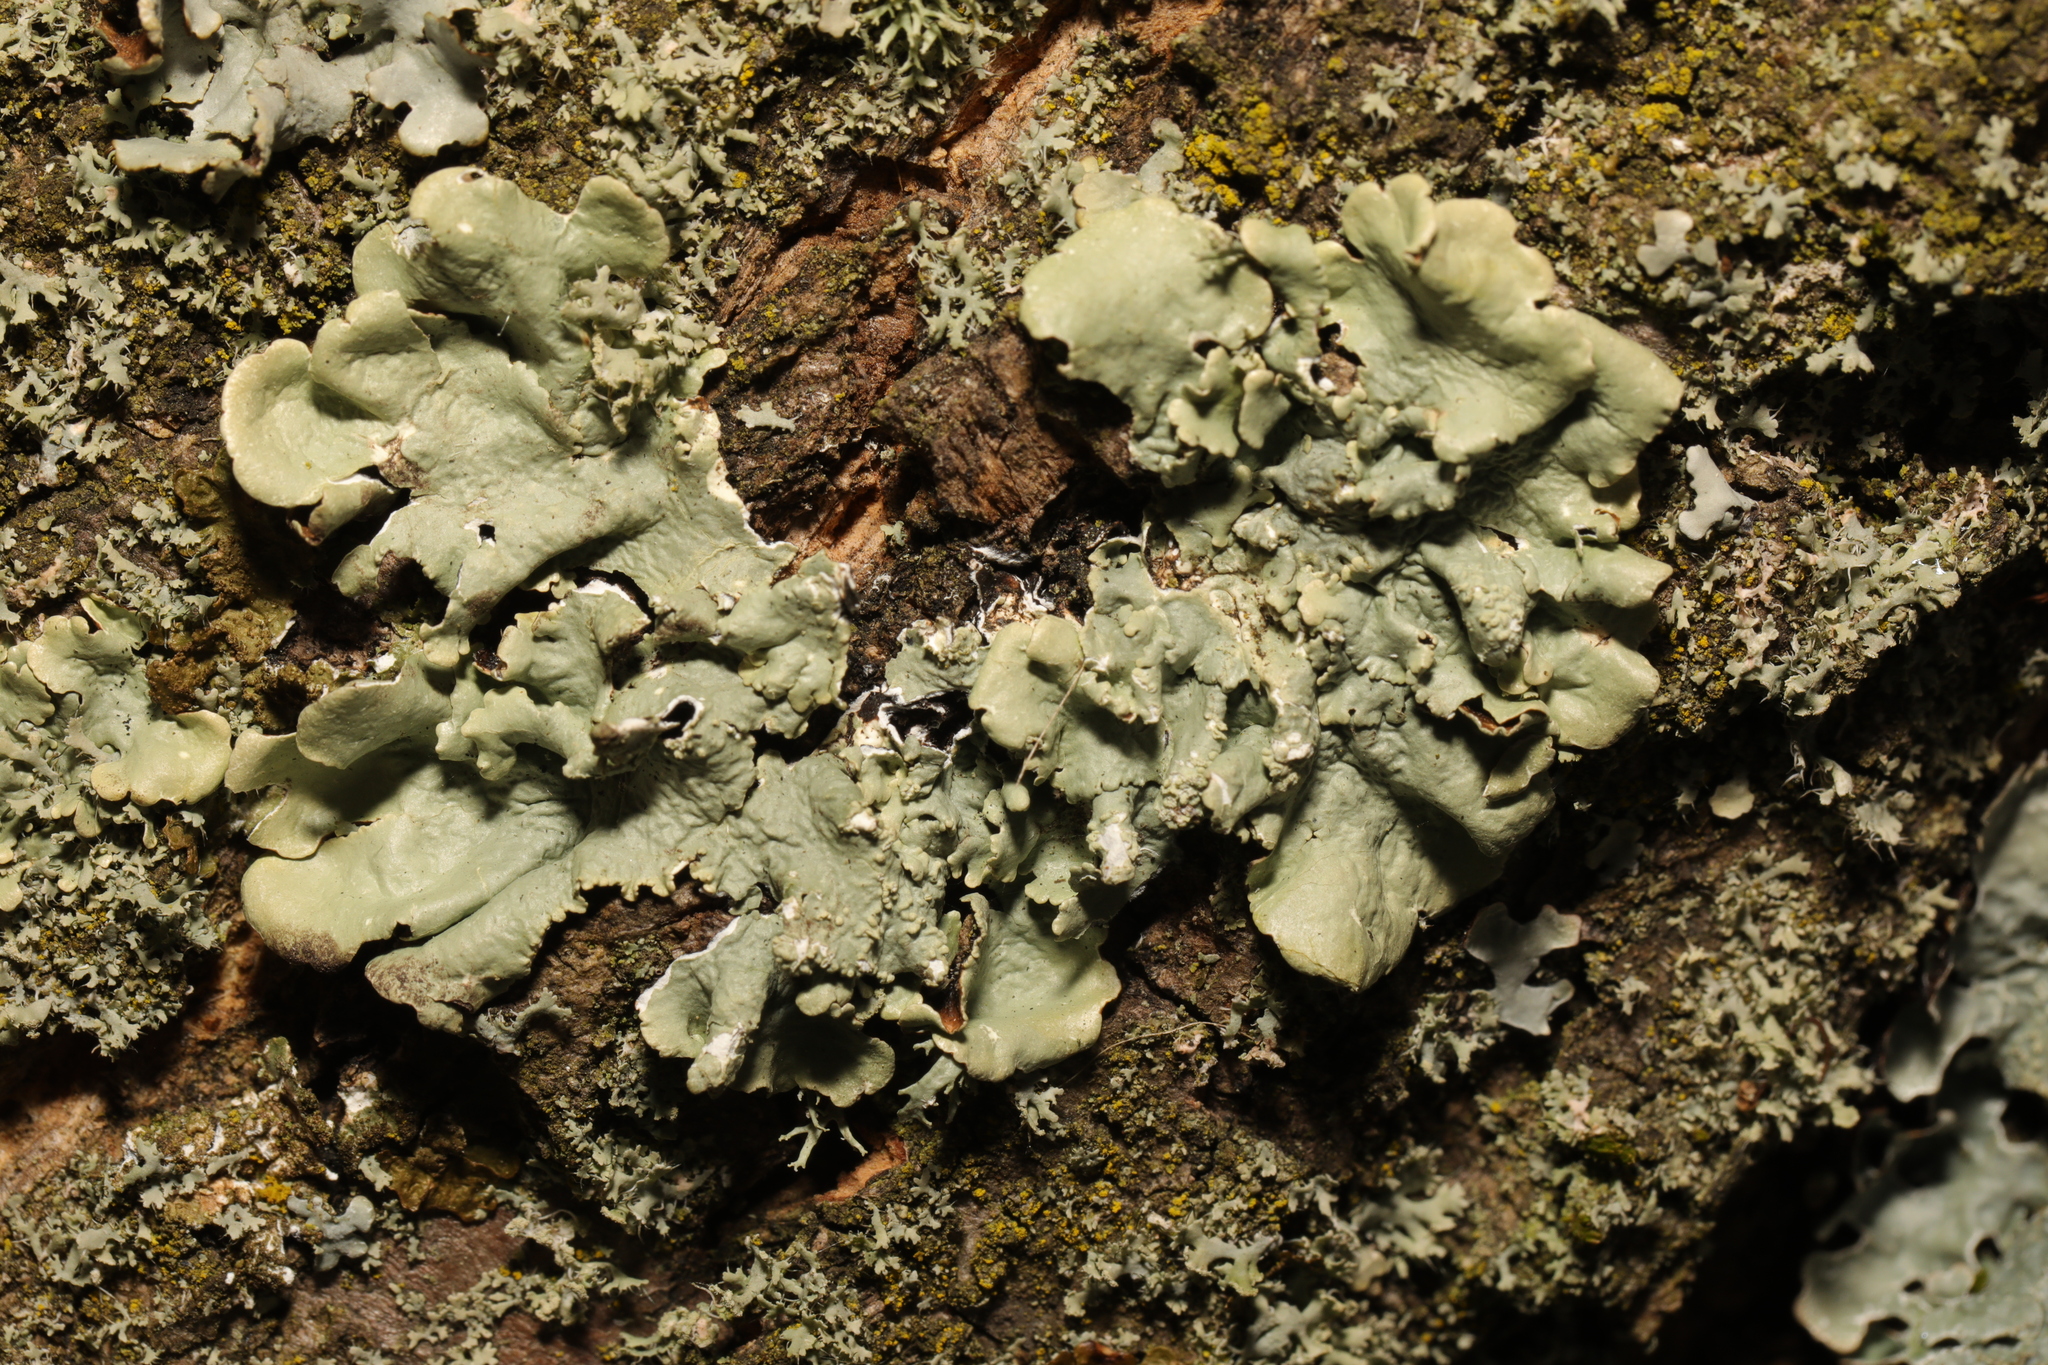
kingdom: Fungi
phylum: Ascomycota
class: Lecanoromycetes
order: Lecanorales
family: Parmeliaceae
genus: Flavoparmelia
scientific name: Flavoparmelia caperata
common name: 40-mile per hour lichen
